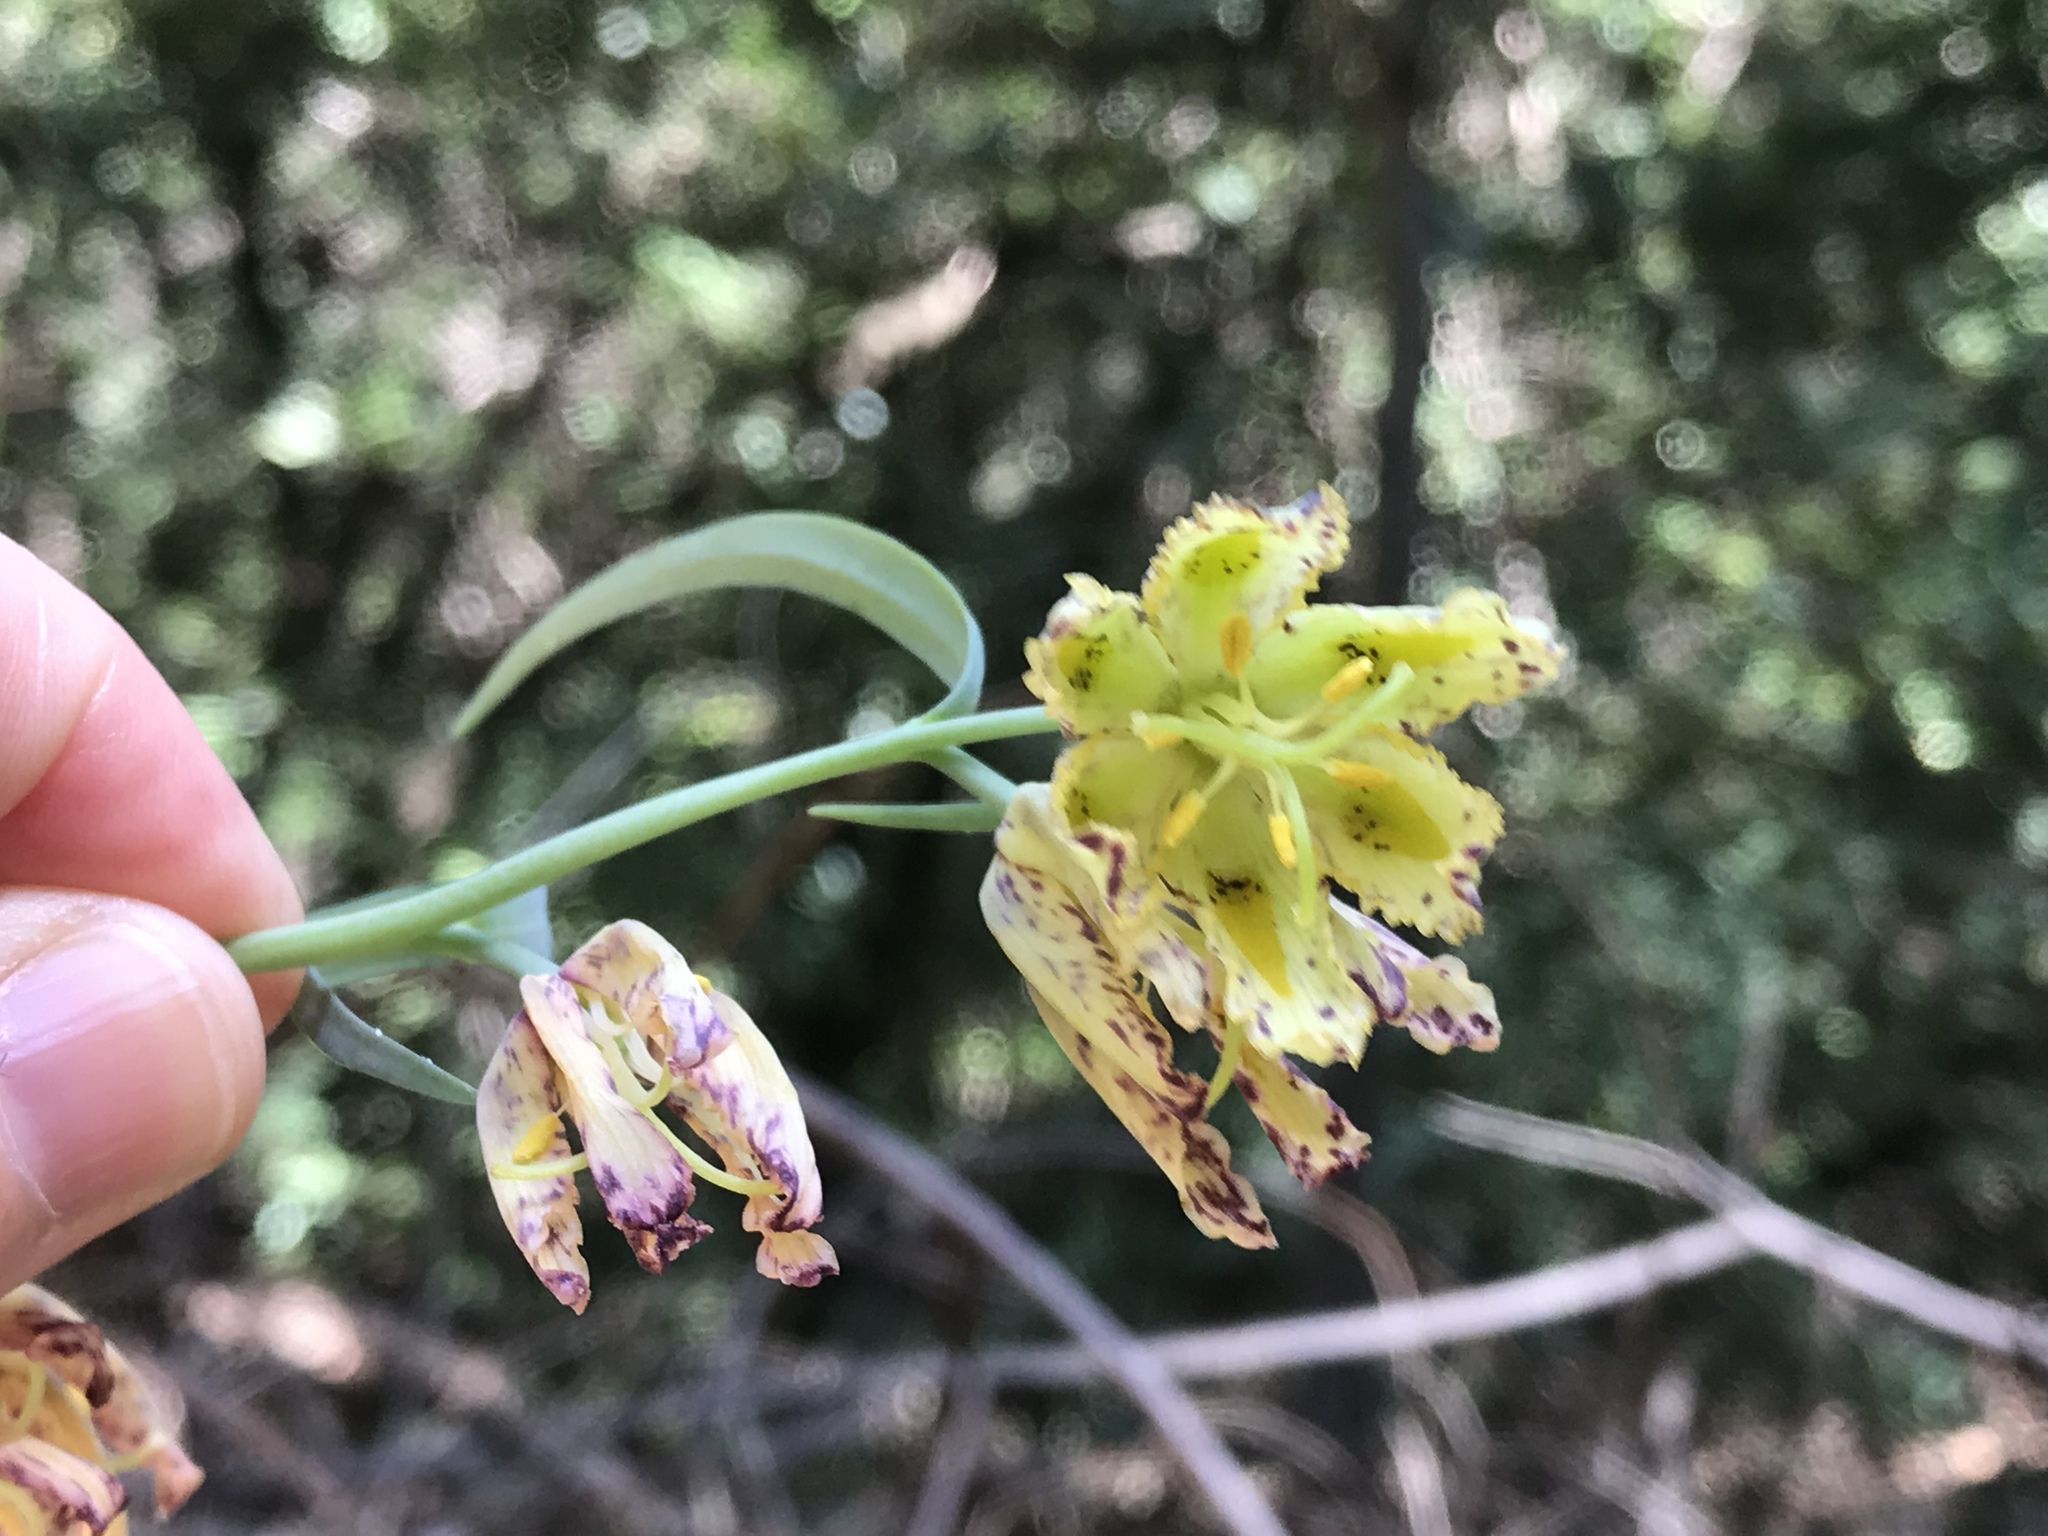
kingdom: Plantae
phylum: Tracheophyta
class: Liliopsida
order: Liliales
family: Liliaceae
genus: Fritillaria
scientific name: Fritillaria affinis
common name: Ojai fritillary
